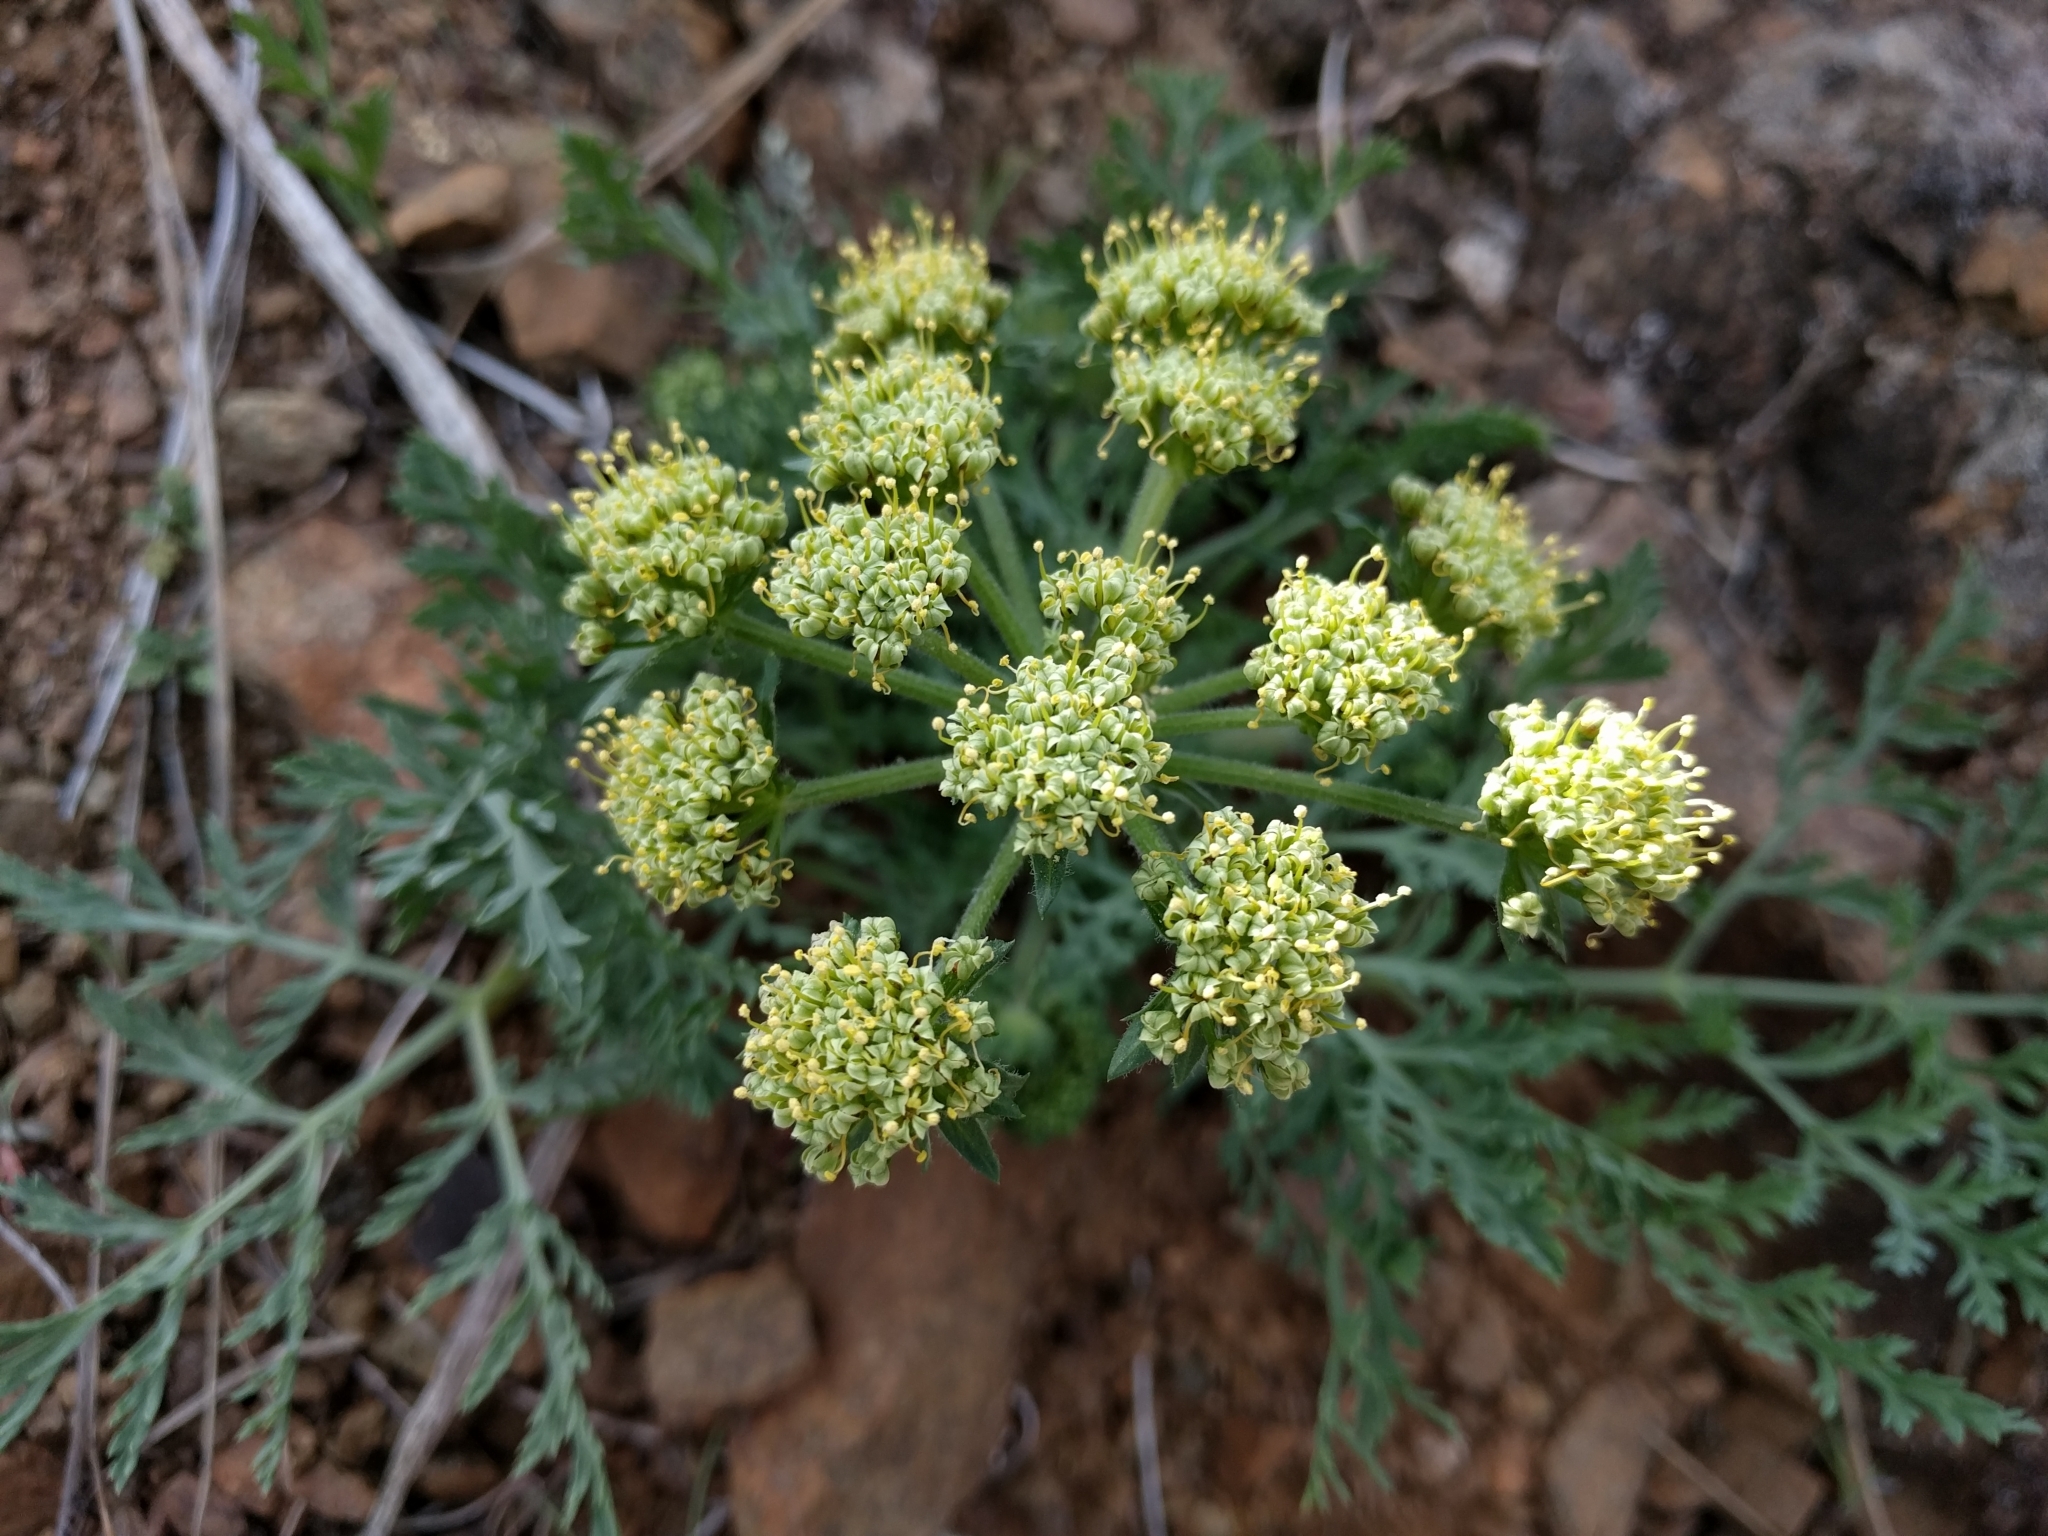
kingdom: Plantae
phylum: Tracheophyta
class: Magnoliopsida
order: Apiales
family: Apiaceae
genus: Lomatium
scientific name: Lomatium macrocarpum
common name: Big-seed biscuitroot
